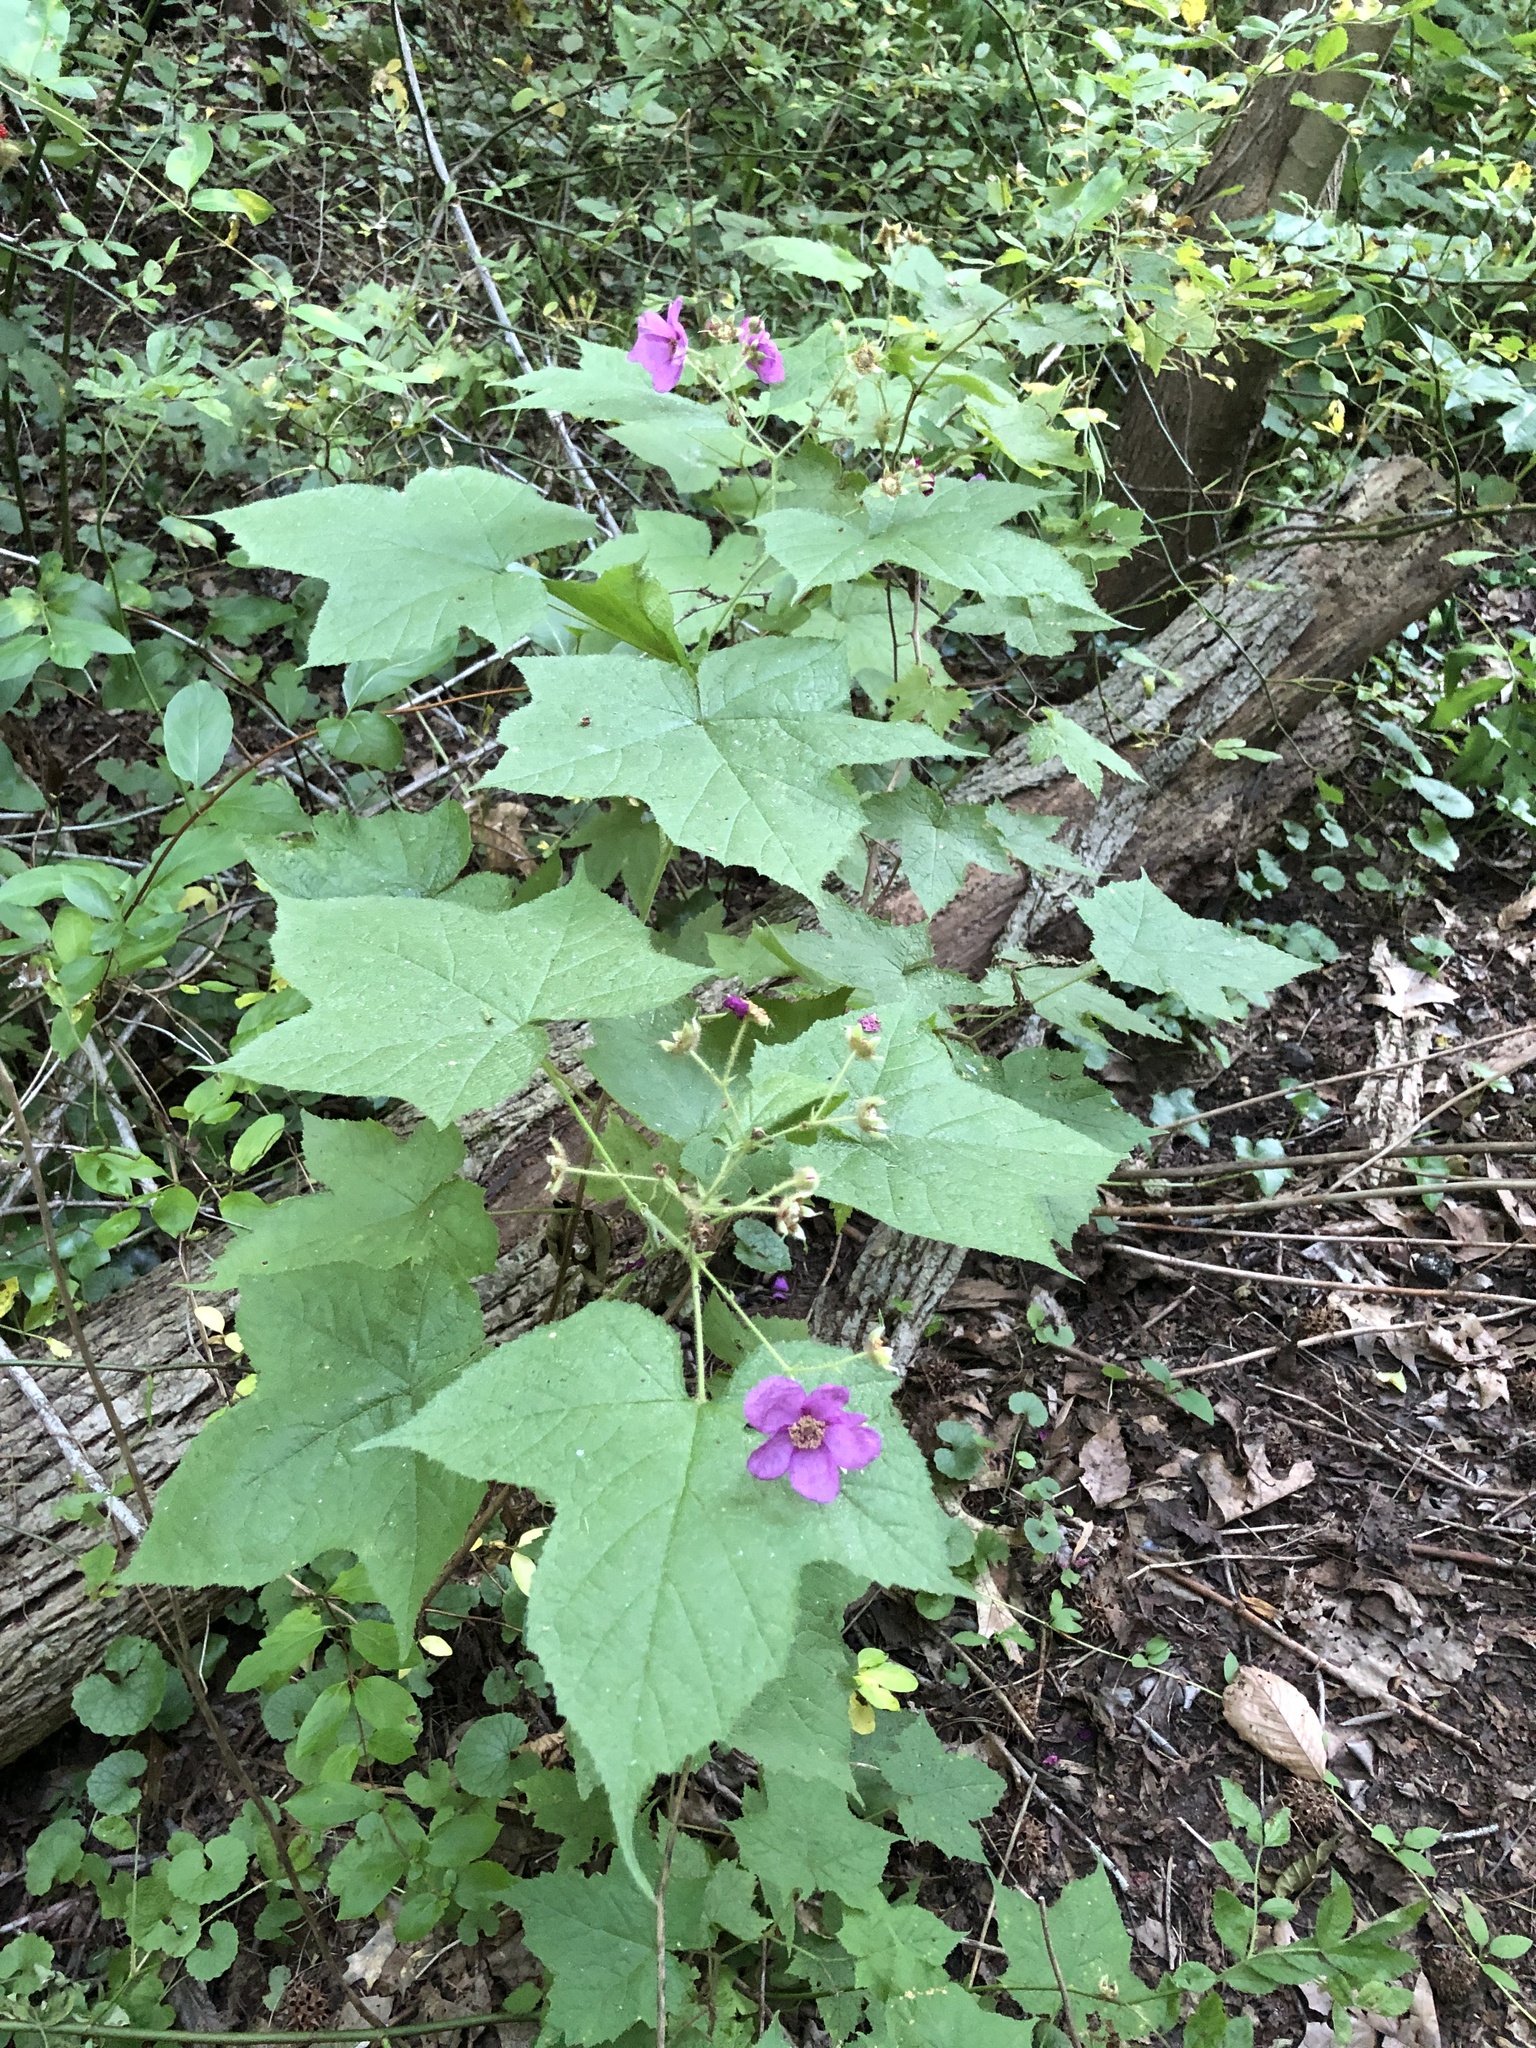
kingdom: Plantae
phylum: Tracheophyta
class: Magnoliopsida
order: Rosales
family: Rosaceae
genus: Rubus
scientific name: Rubus odoratus
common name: Purple-flowered raspberry
